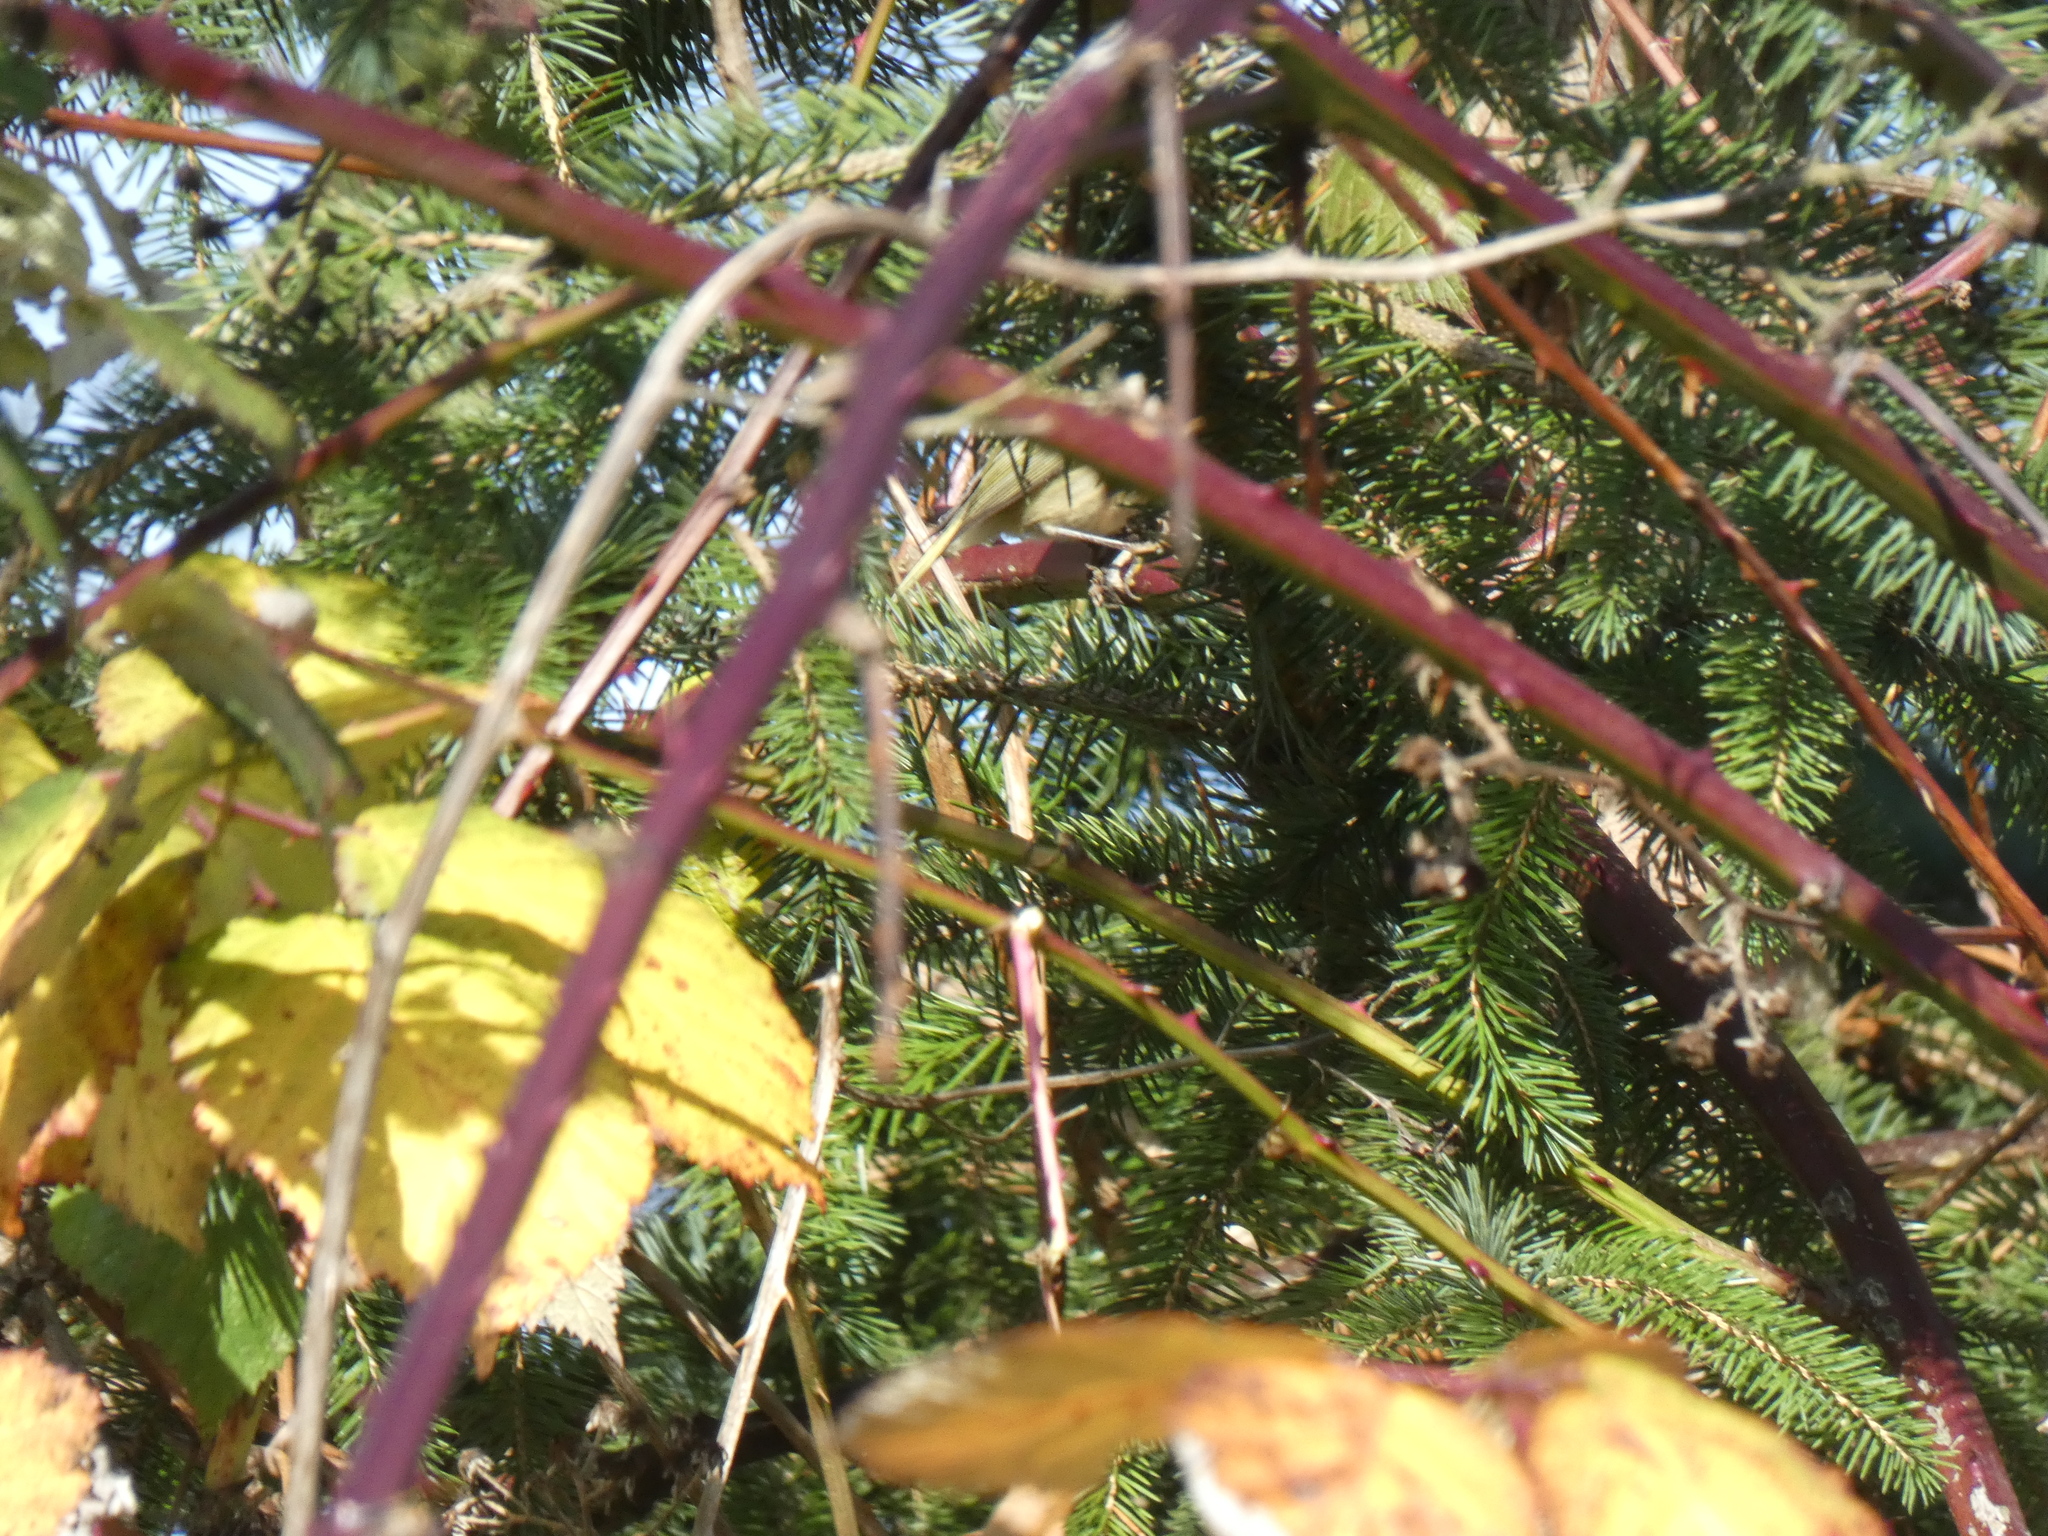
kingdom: Animalia
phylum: Chordata
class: Aves
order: Passeriformes
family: Regulidae
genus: Regulus
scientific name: Regulus calendula
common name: Ruby-crowned kinglet
